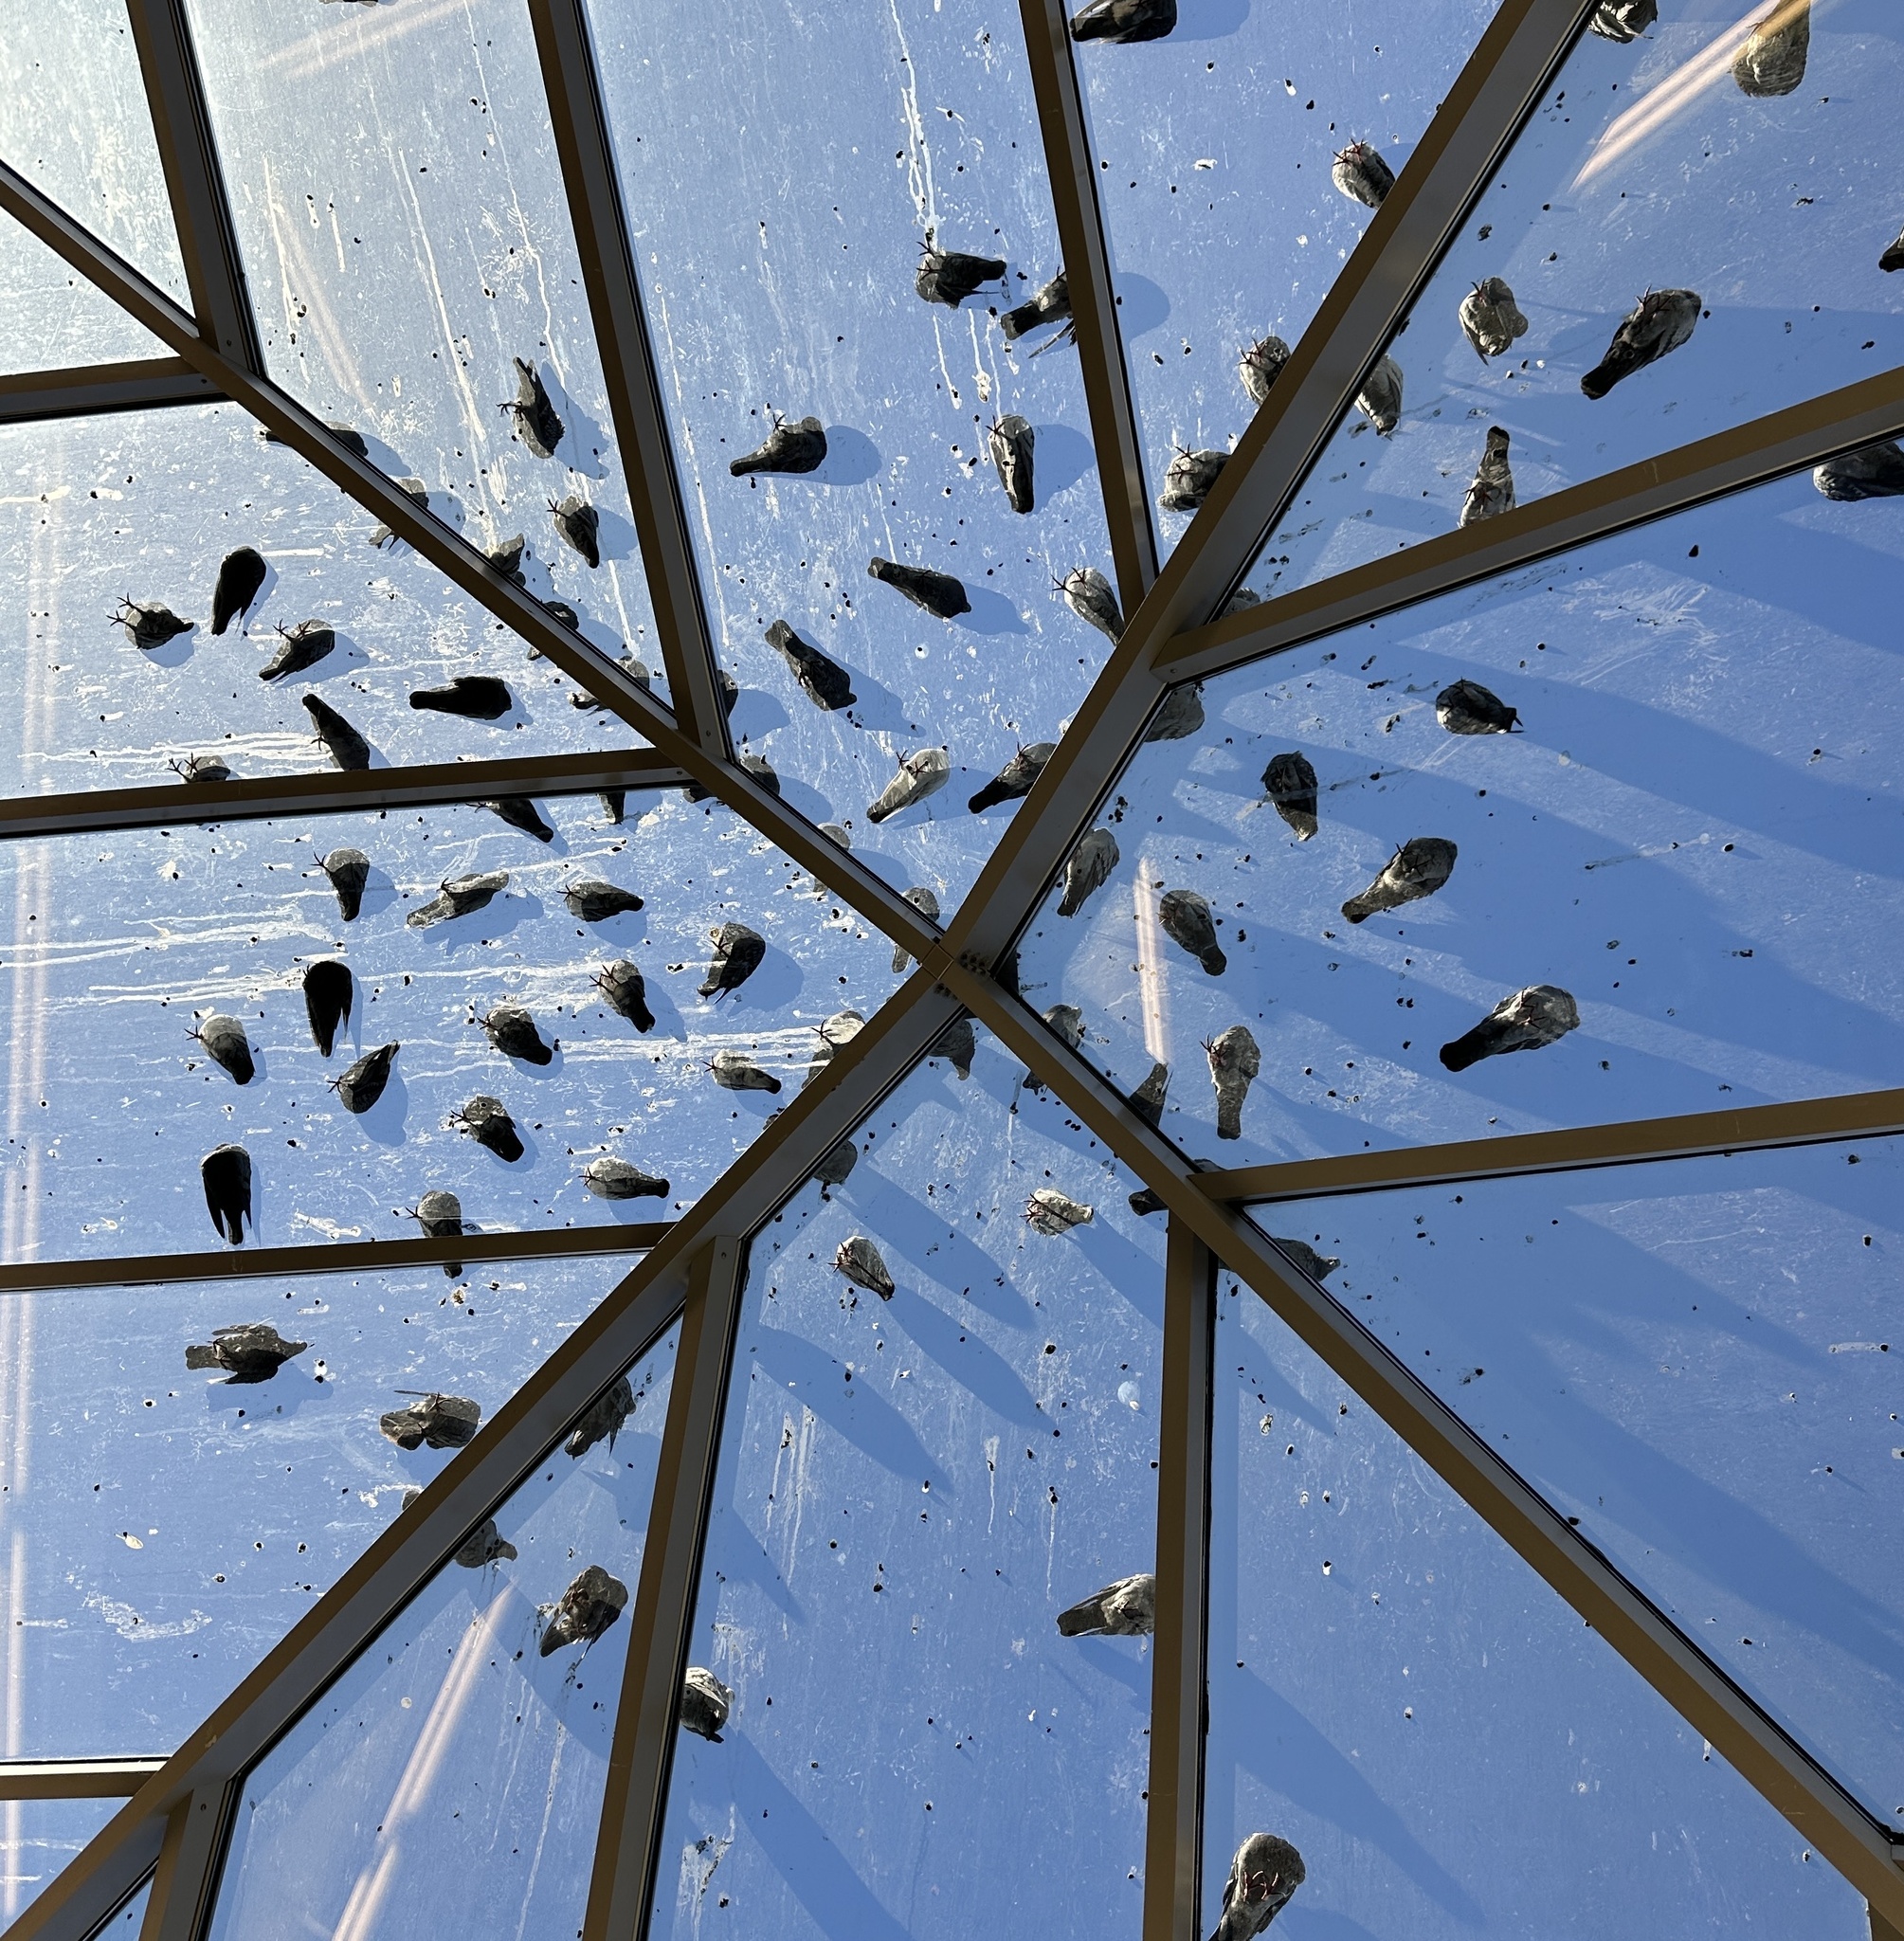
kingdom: Animalia
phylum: Chordata
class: Aves
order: Columbiformes
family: Columbidae
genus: Columba
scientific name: Columba livia
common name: Rock pigeon
